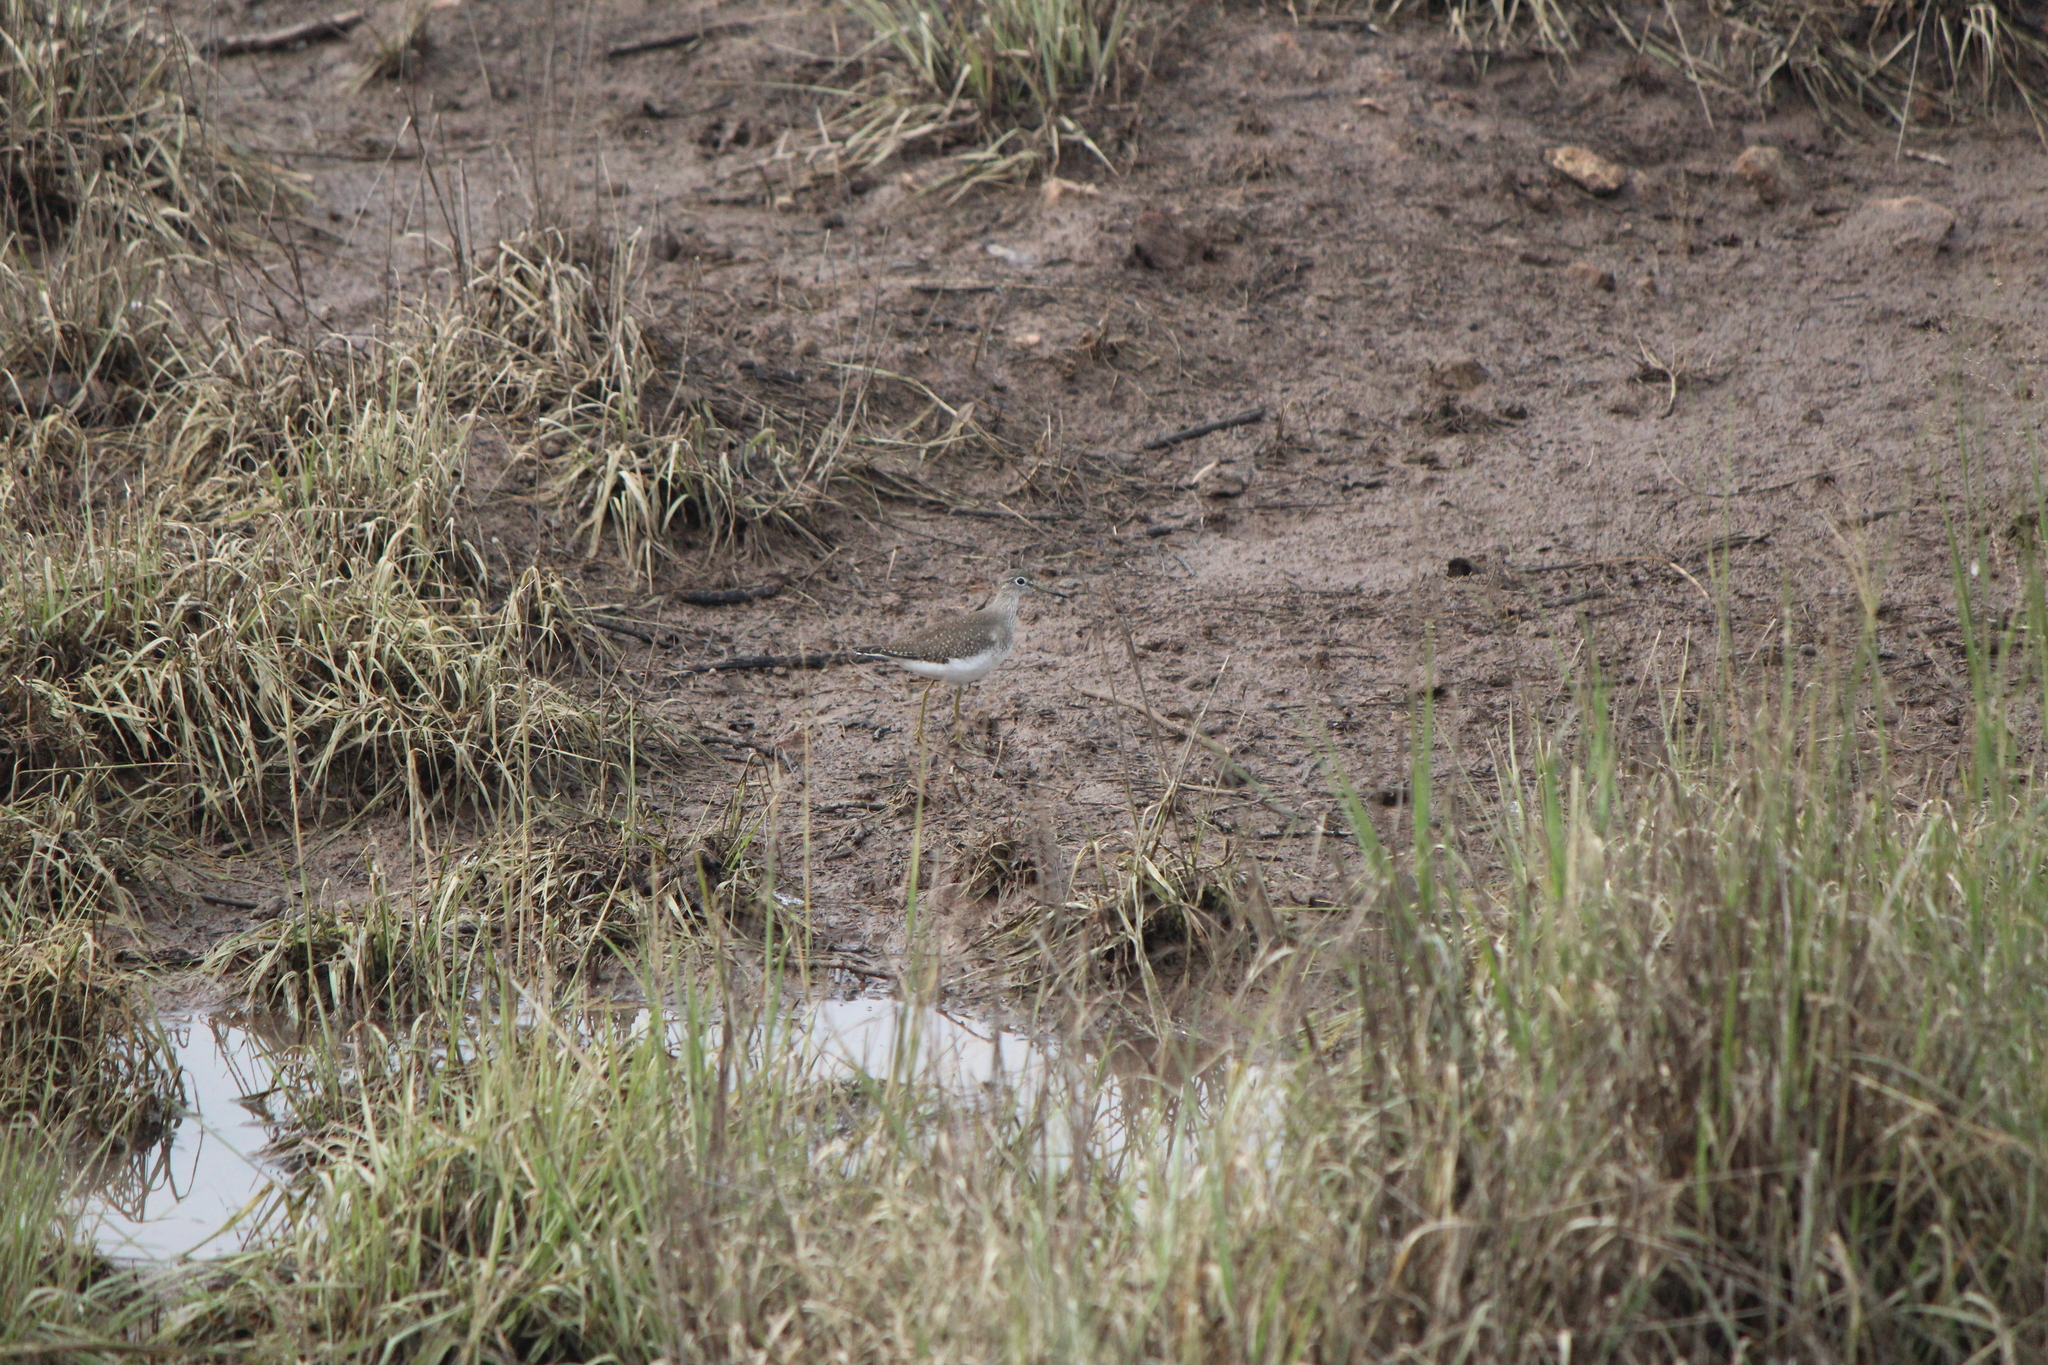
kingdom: Animalia
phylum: Chordata
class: Aves
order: Charadriiformes
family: Scolopacidae
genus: Actitis
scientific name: Actitis macularius
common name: Spotted sandpiper
